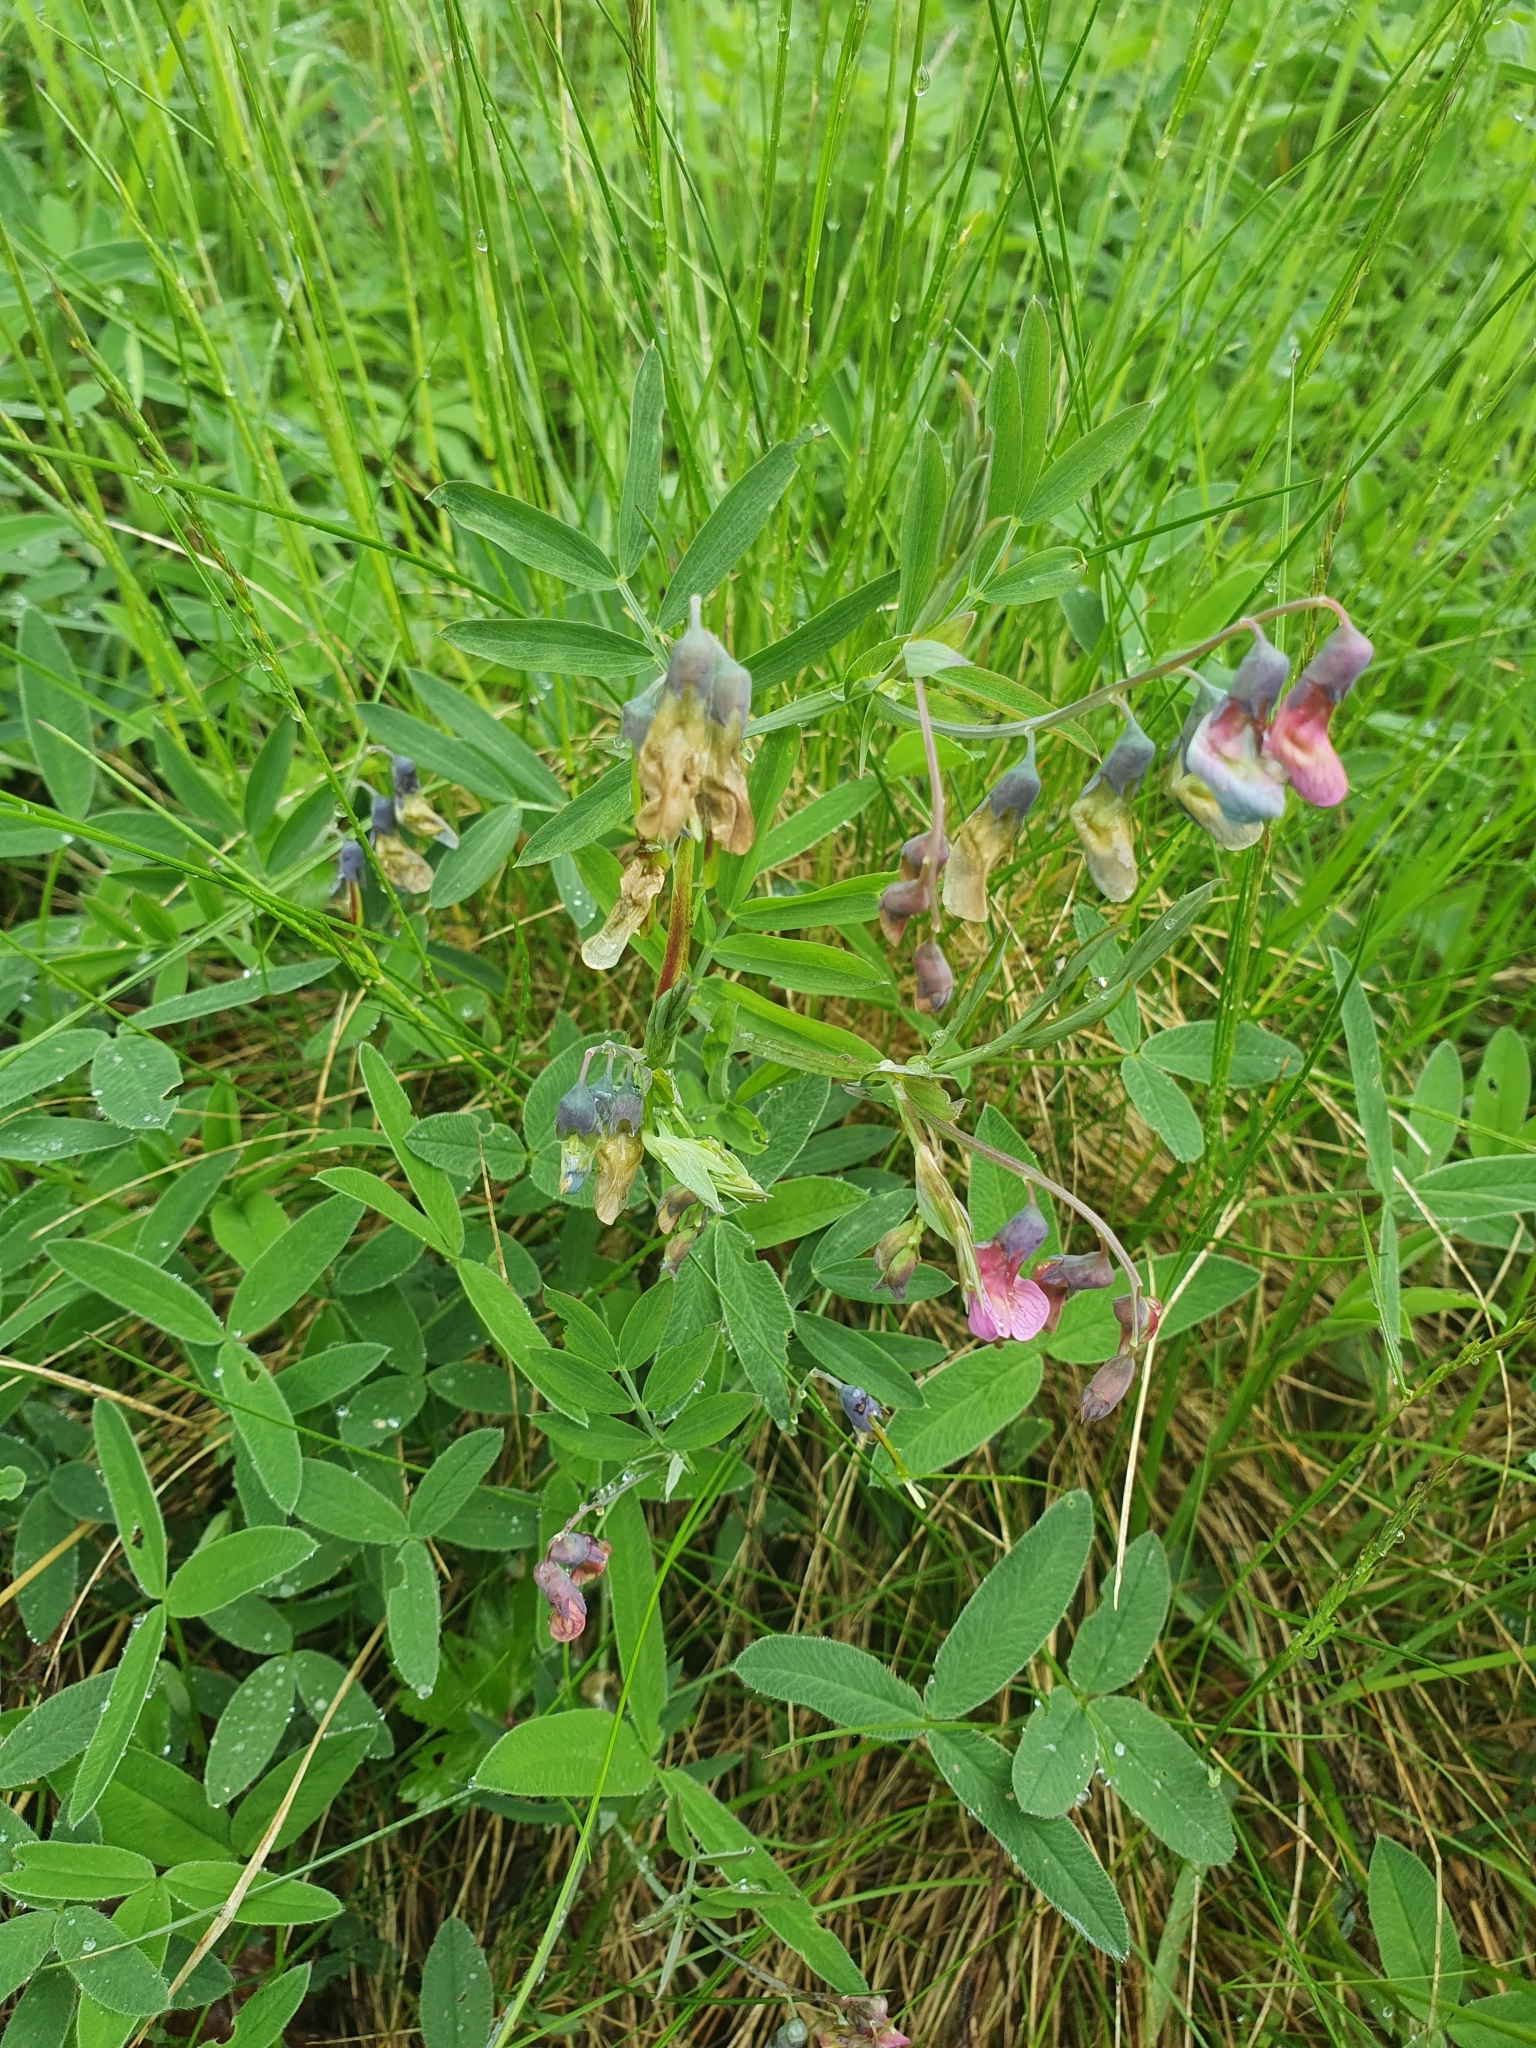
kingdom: Plantae
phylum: Tracheophyta
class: Magnoliopsida
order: Fabales
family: Fabaceae
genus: Lathyrus
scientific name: Lathyrus linifolius
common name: Bitter-vetch
